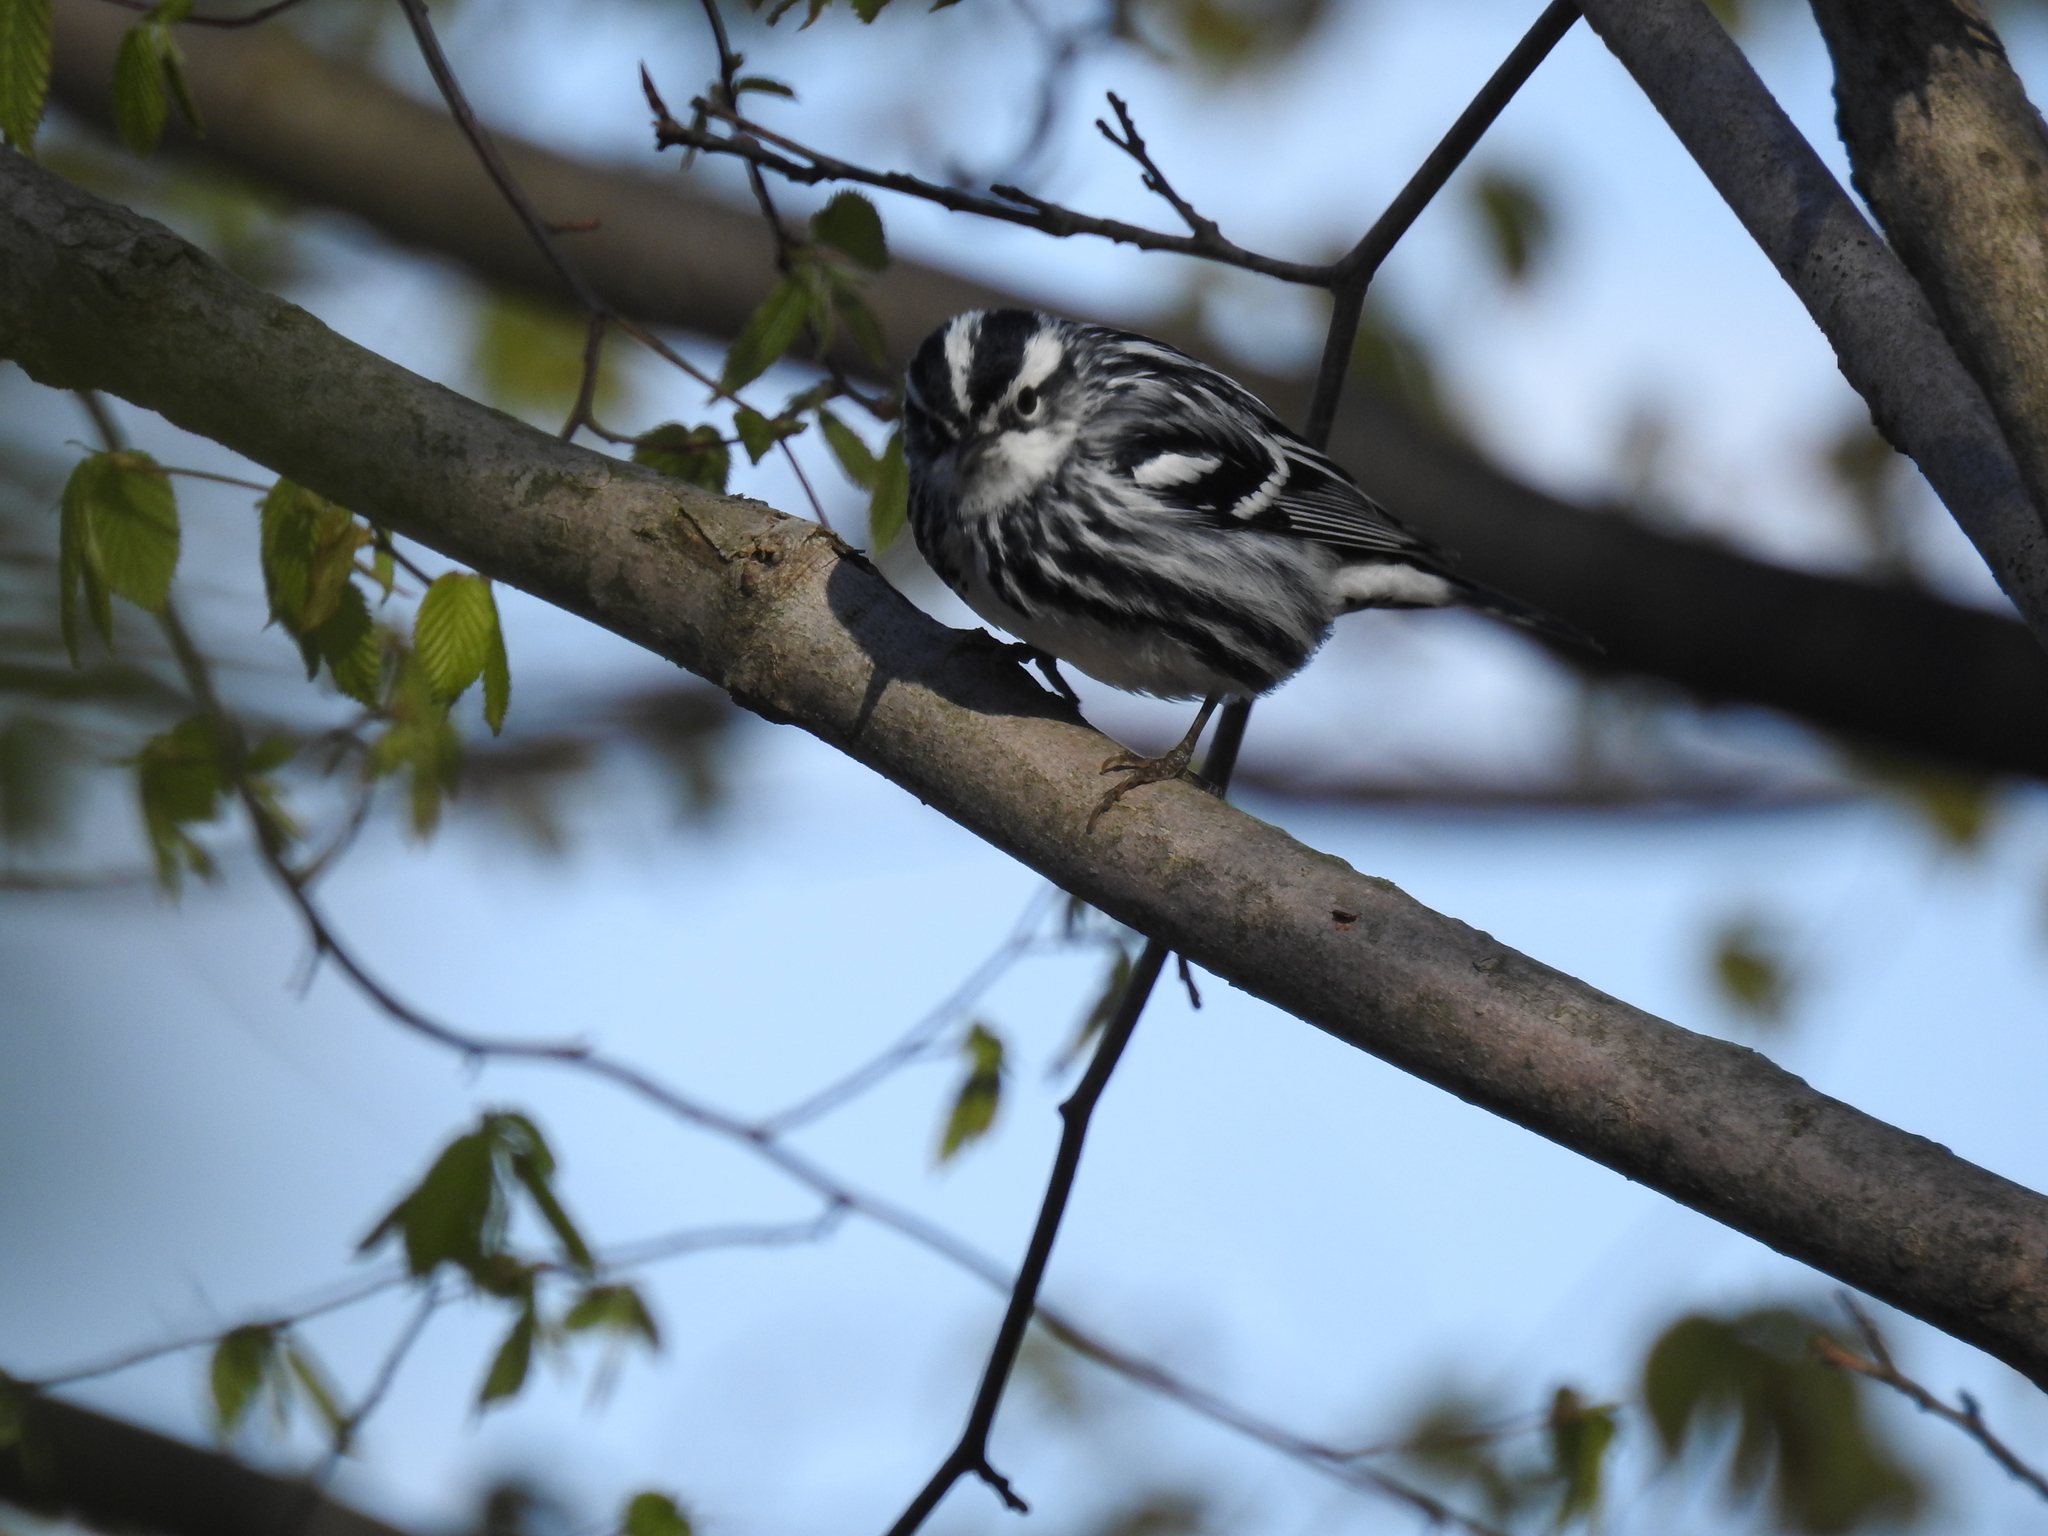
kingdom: Animalia
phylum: Chordata
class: Aves
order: Passeriformes
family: Parulidae
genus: Mniotilta
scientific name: Mniotilta varia
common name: Black-and-white warbler
